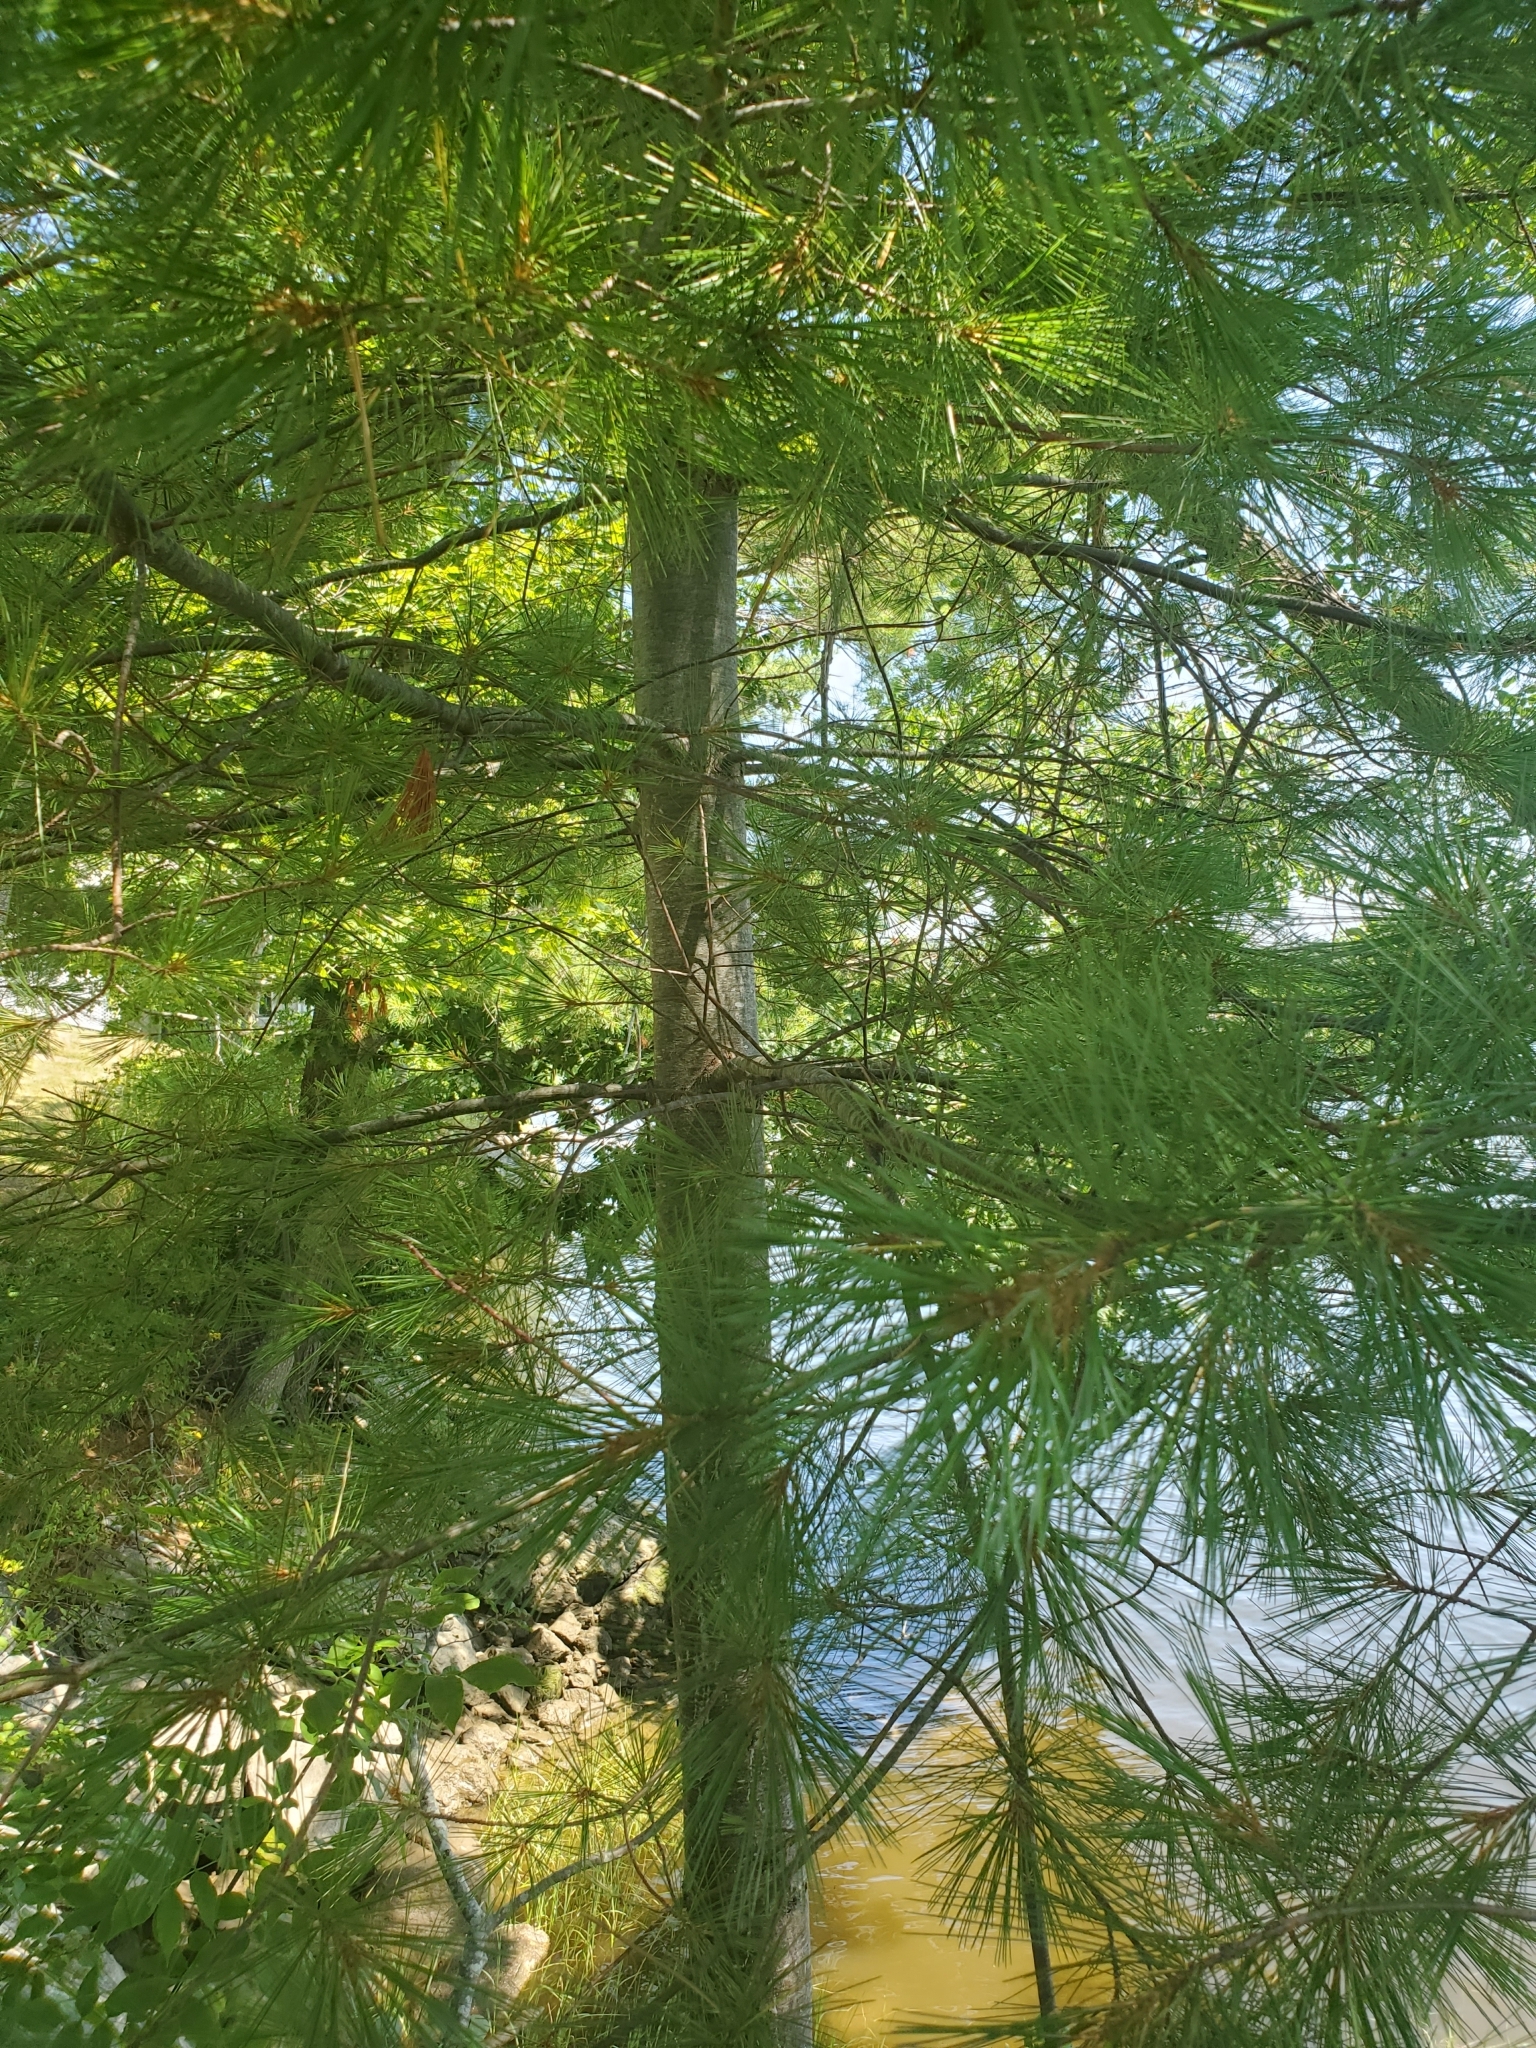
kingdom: Plantae
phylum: Tracheophyta
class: Pinopsida
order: Pinales
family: Pinaceae
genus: Pinus
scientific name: Pinus strobus
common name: Weymouth pine
